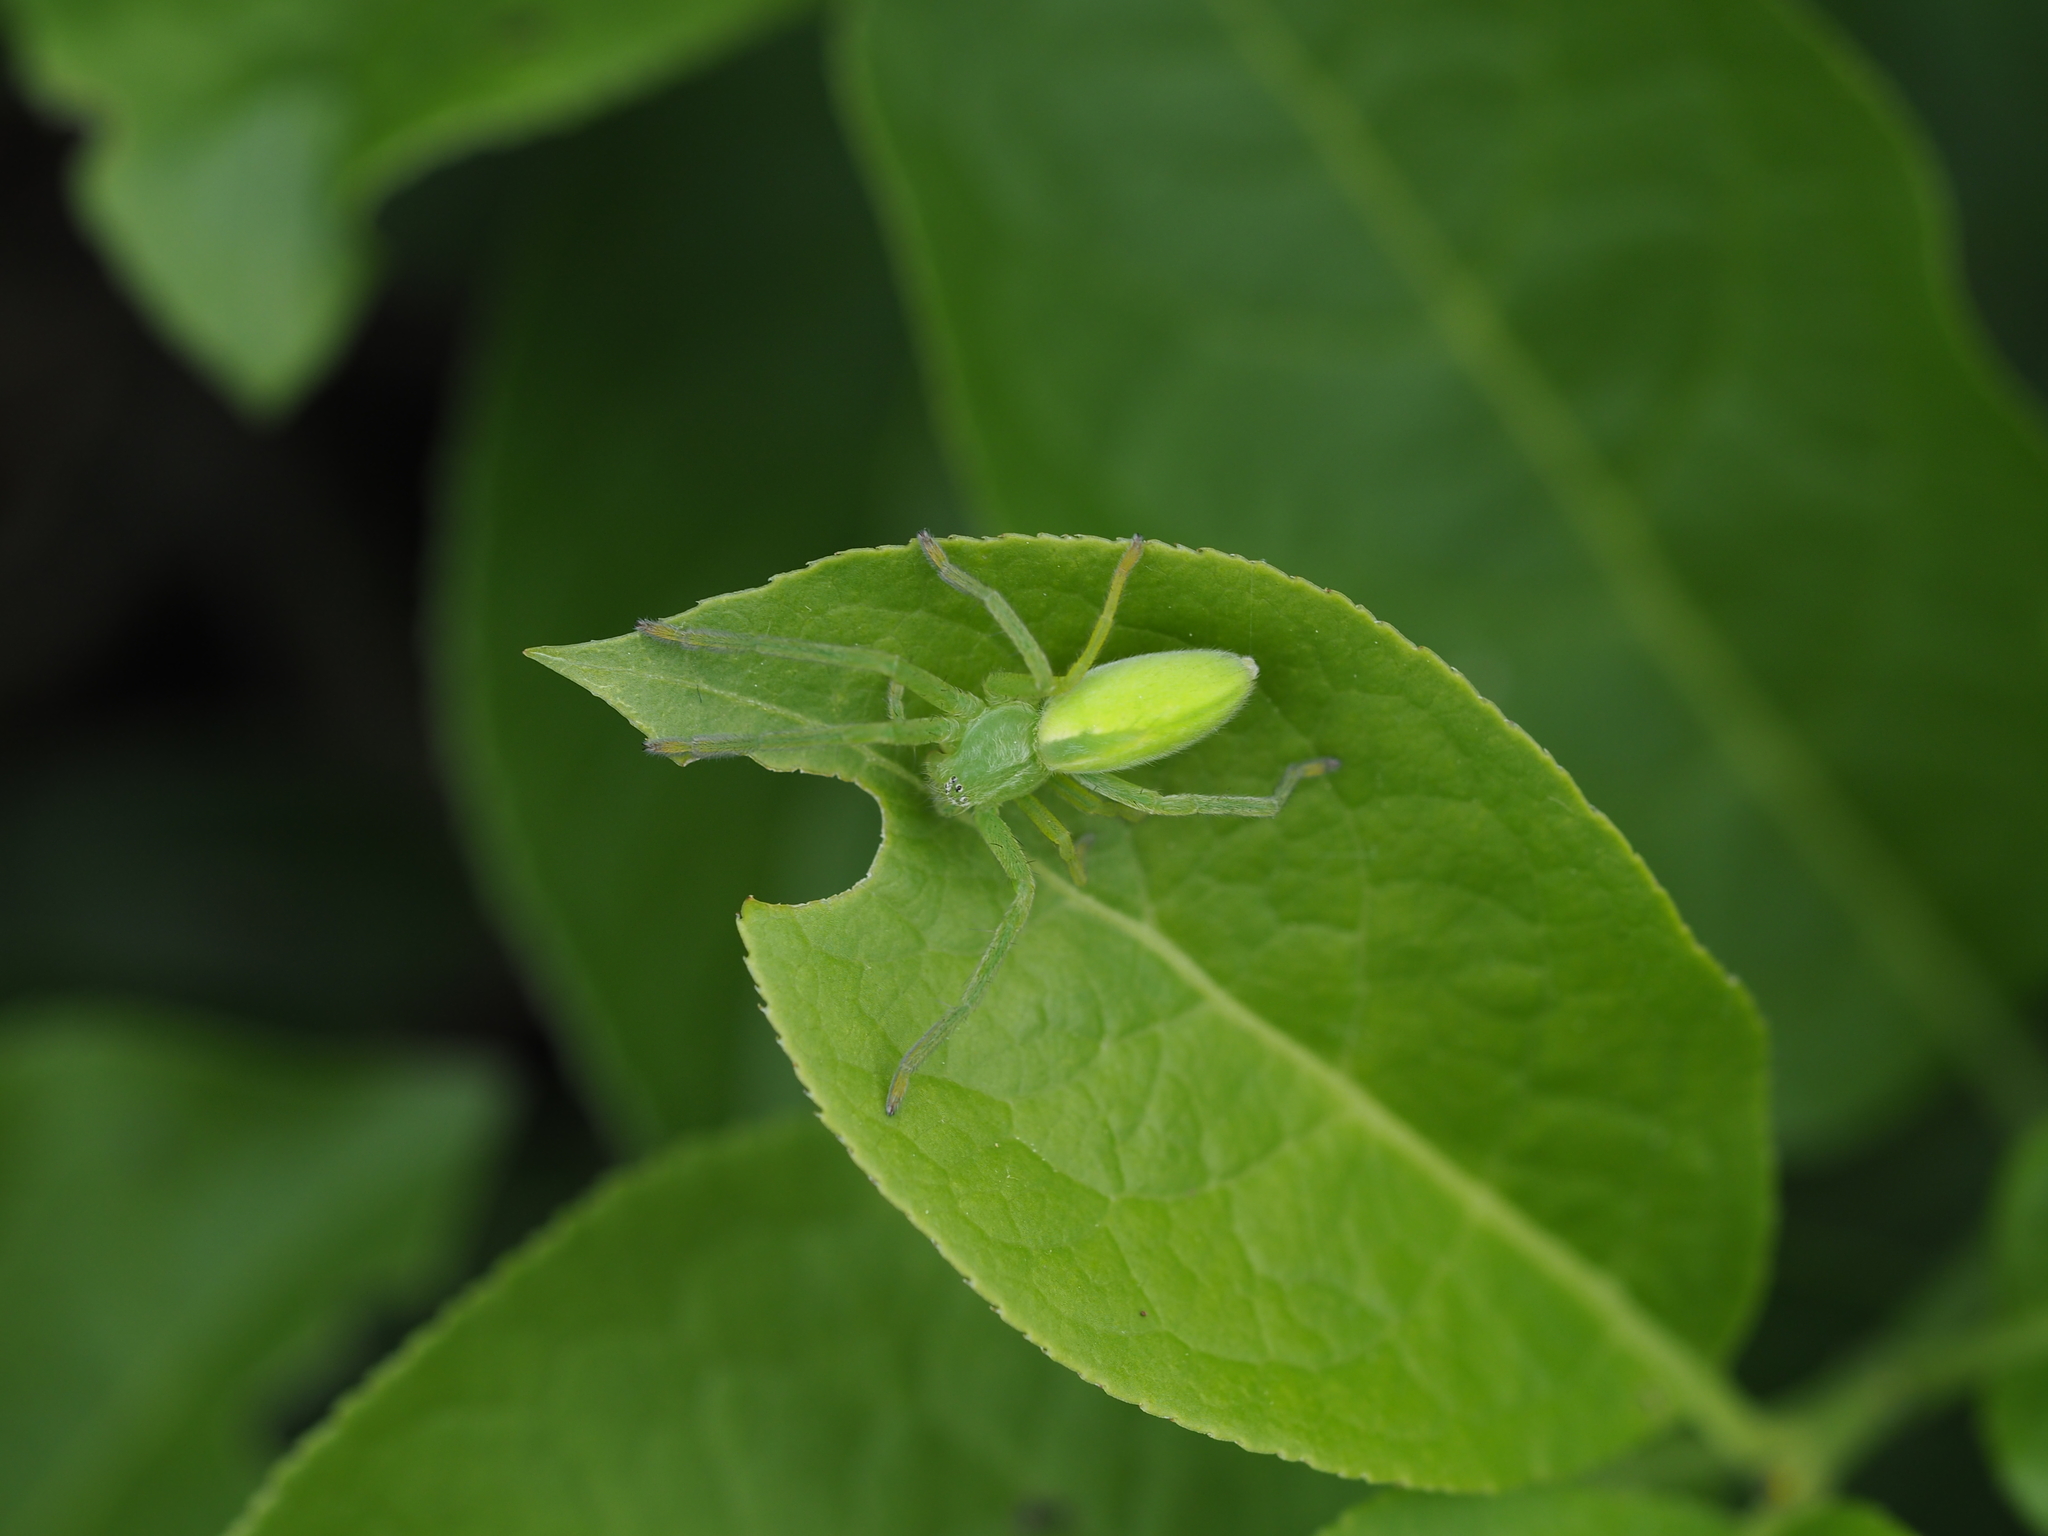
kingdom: Animalia
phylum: Arthropoda
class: Arachnida
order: Araneae
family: Sparassidae
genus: Micrommata
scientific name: Micrommata virescens
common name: Green spider
